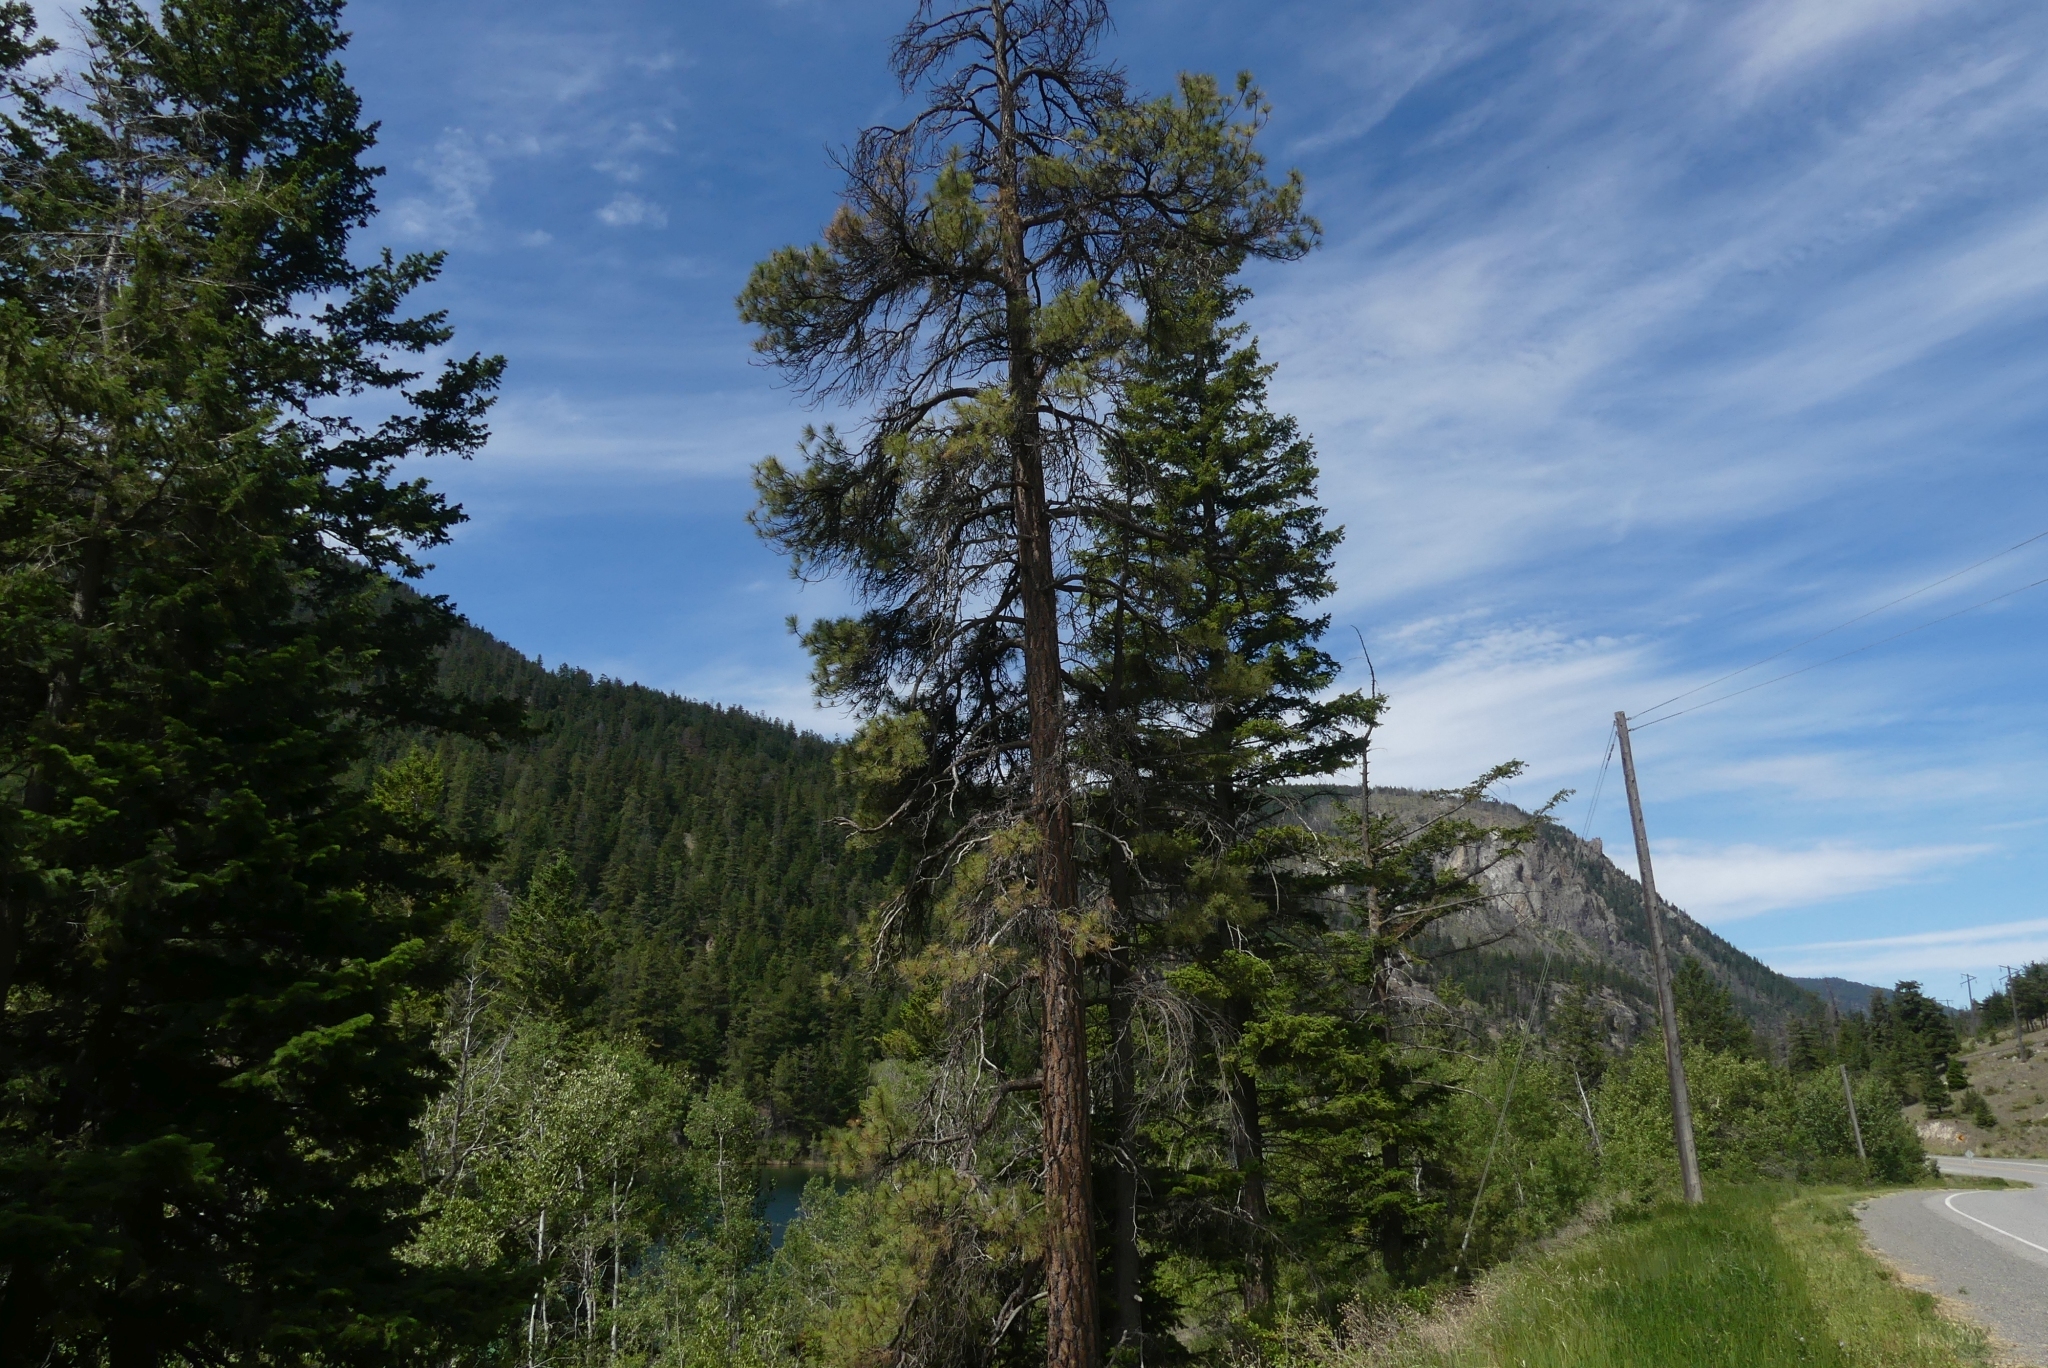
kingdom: Plantae
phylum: Tracheophyta
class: Pinopsida
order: Pinales
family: Pinaceae
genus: Pinus
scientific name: Pinus ponderosa
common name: Western yellow-pine
